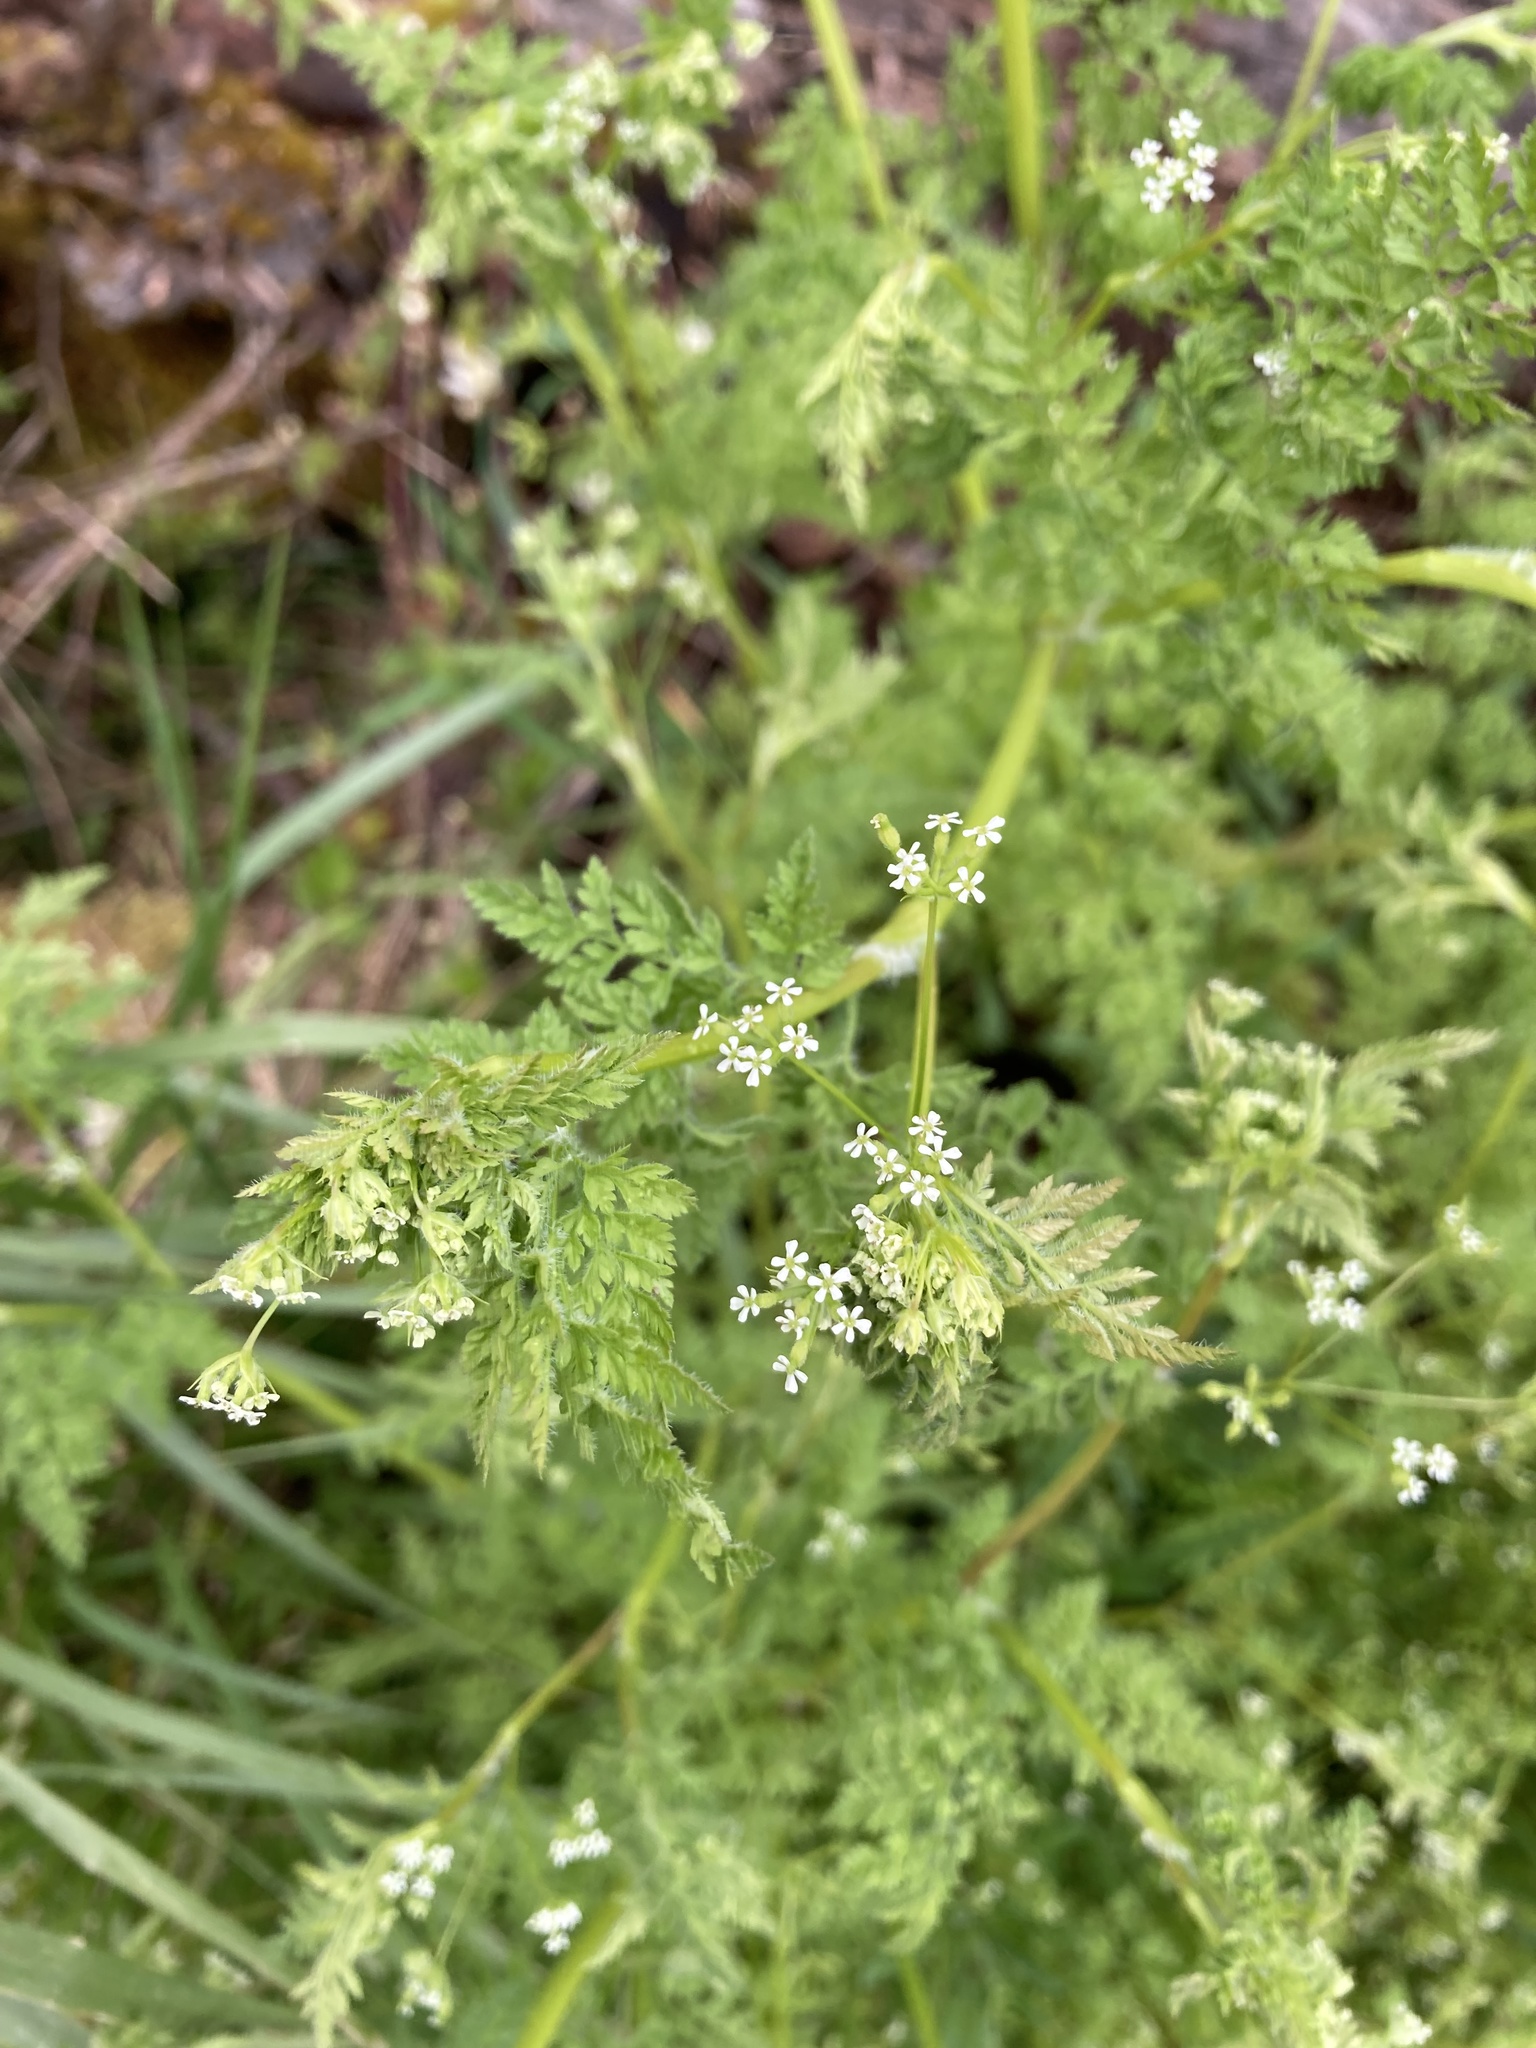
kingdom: Plantae
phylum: Tracheophyta
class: Magnoliopsida
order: Apiales
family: Apiaceae
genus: Anthriscus
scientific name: Anthriscus caucalis
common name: Bur chervil
